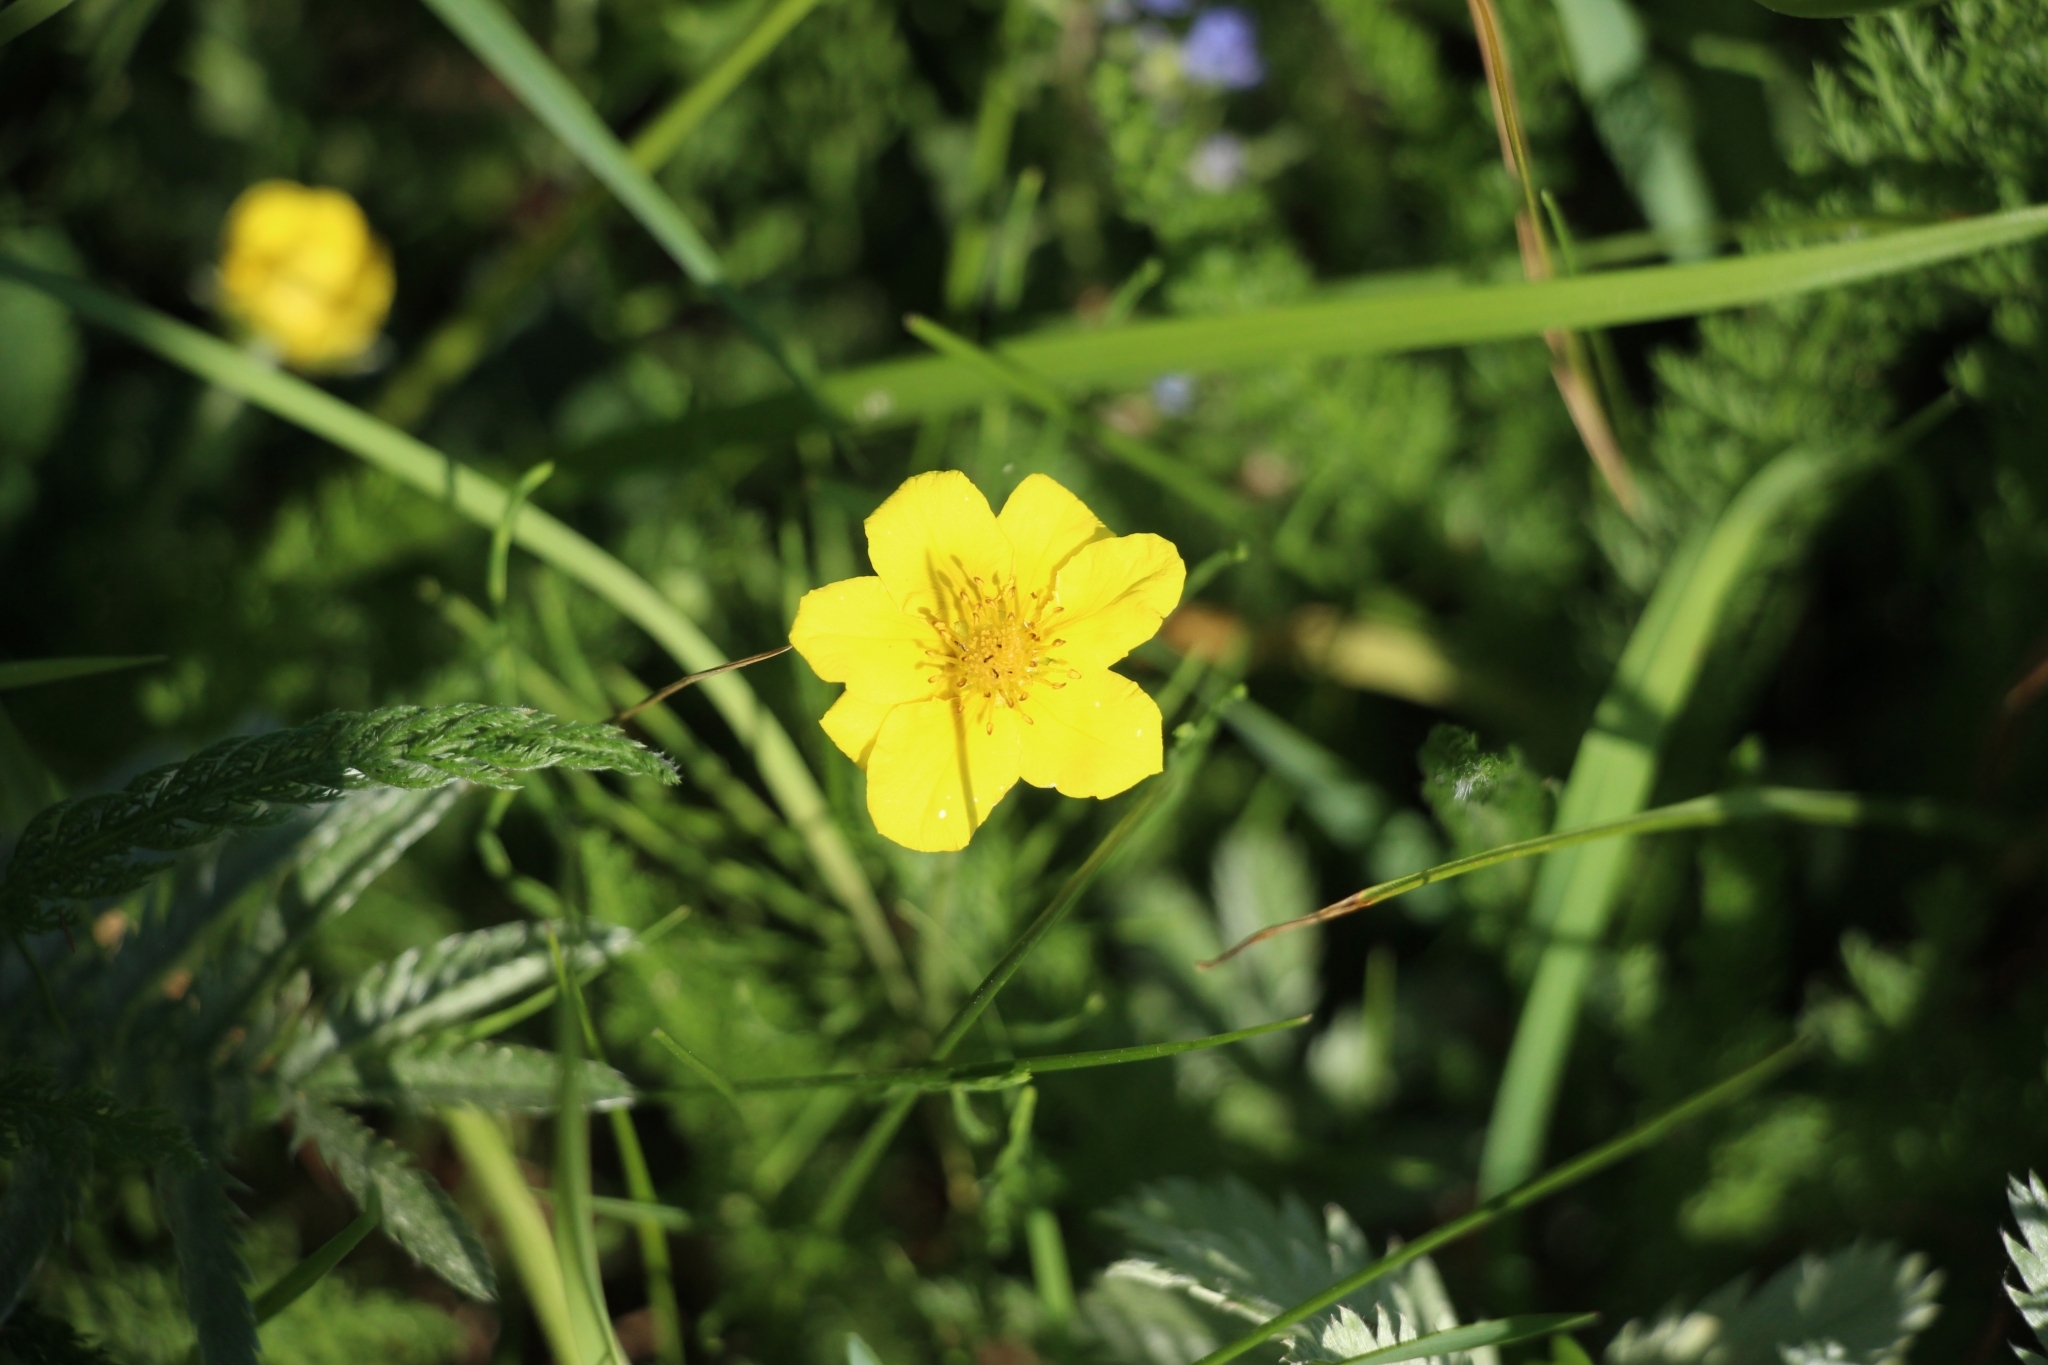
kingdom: Plantae
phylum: Tracheophyta
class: Magnoliopsida
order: Rosales
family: Rosaceae
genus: Argentina
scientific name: Argentina anserina
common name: Common silverweed
